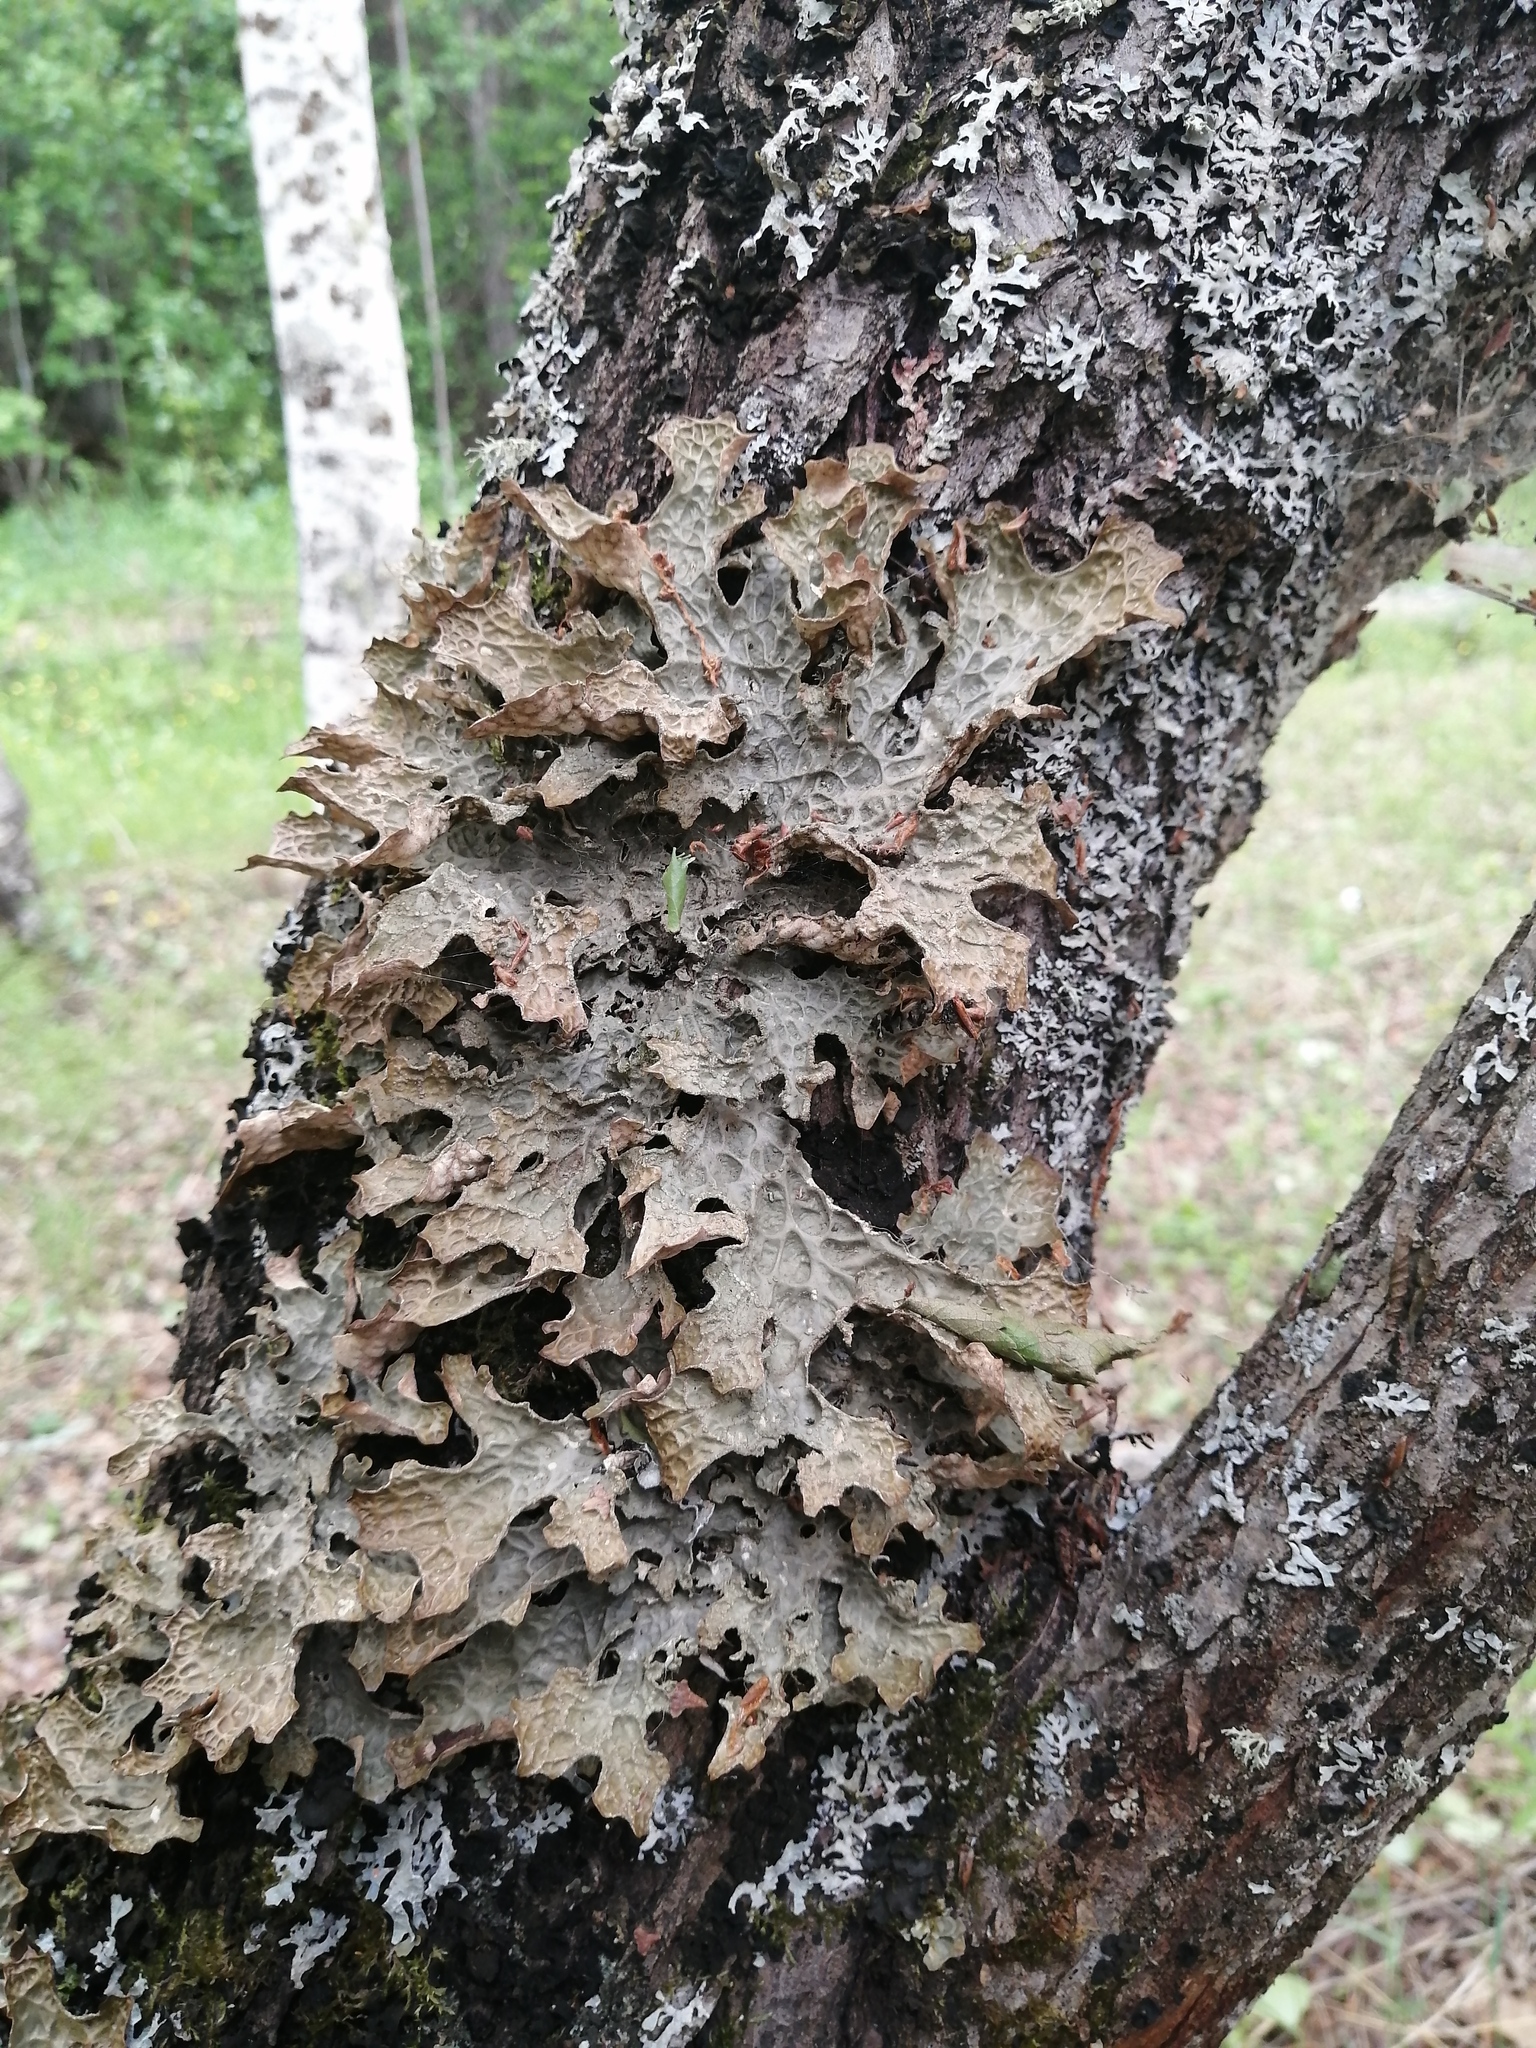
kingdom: Fungi
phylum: Ascomycota
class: Lecanoromycetes
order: Peltigerales
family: Lobariaceae
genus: Lobaria
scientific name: Lobaria pulmonaria
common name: Lungwort
